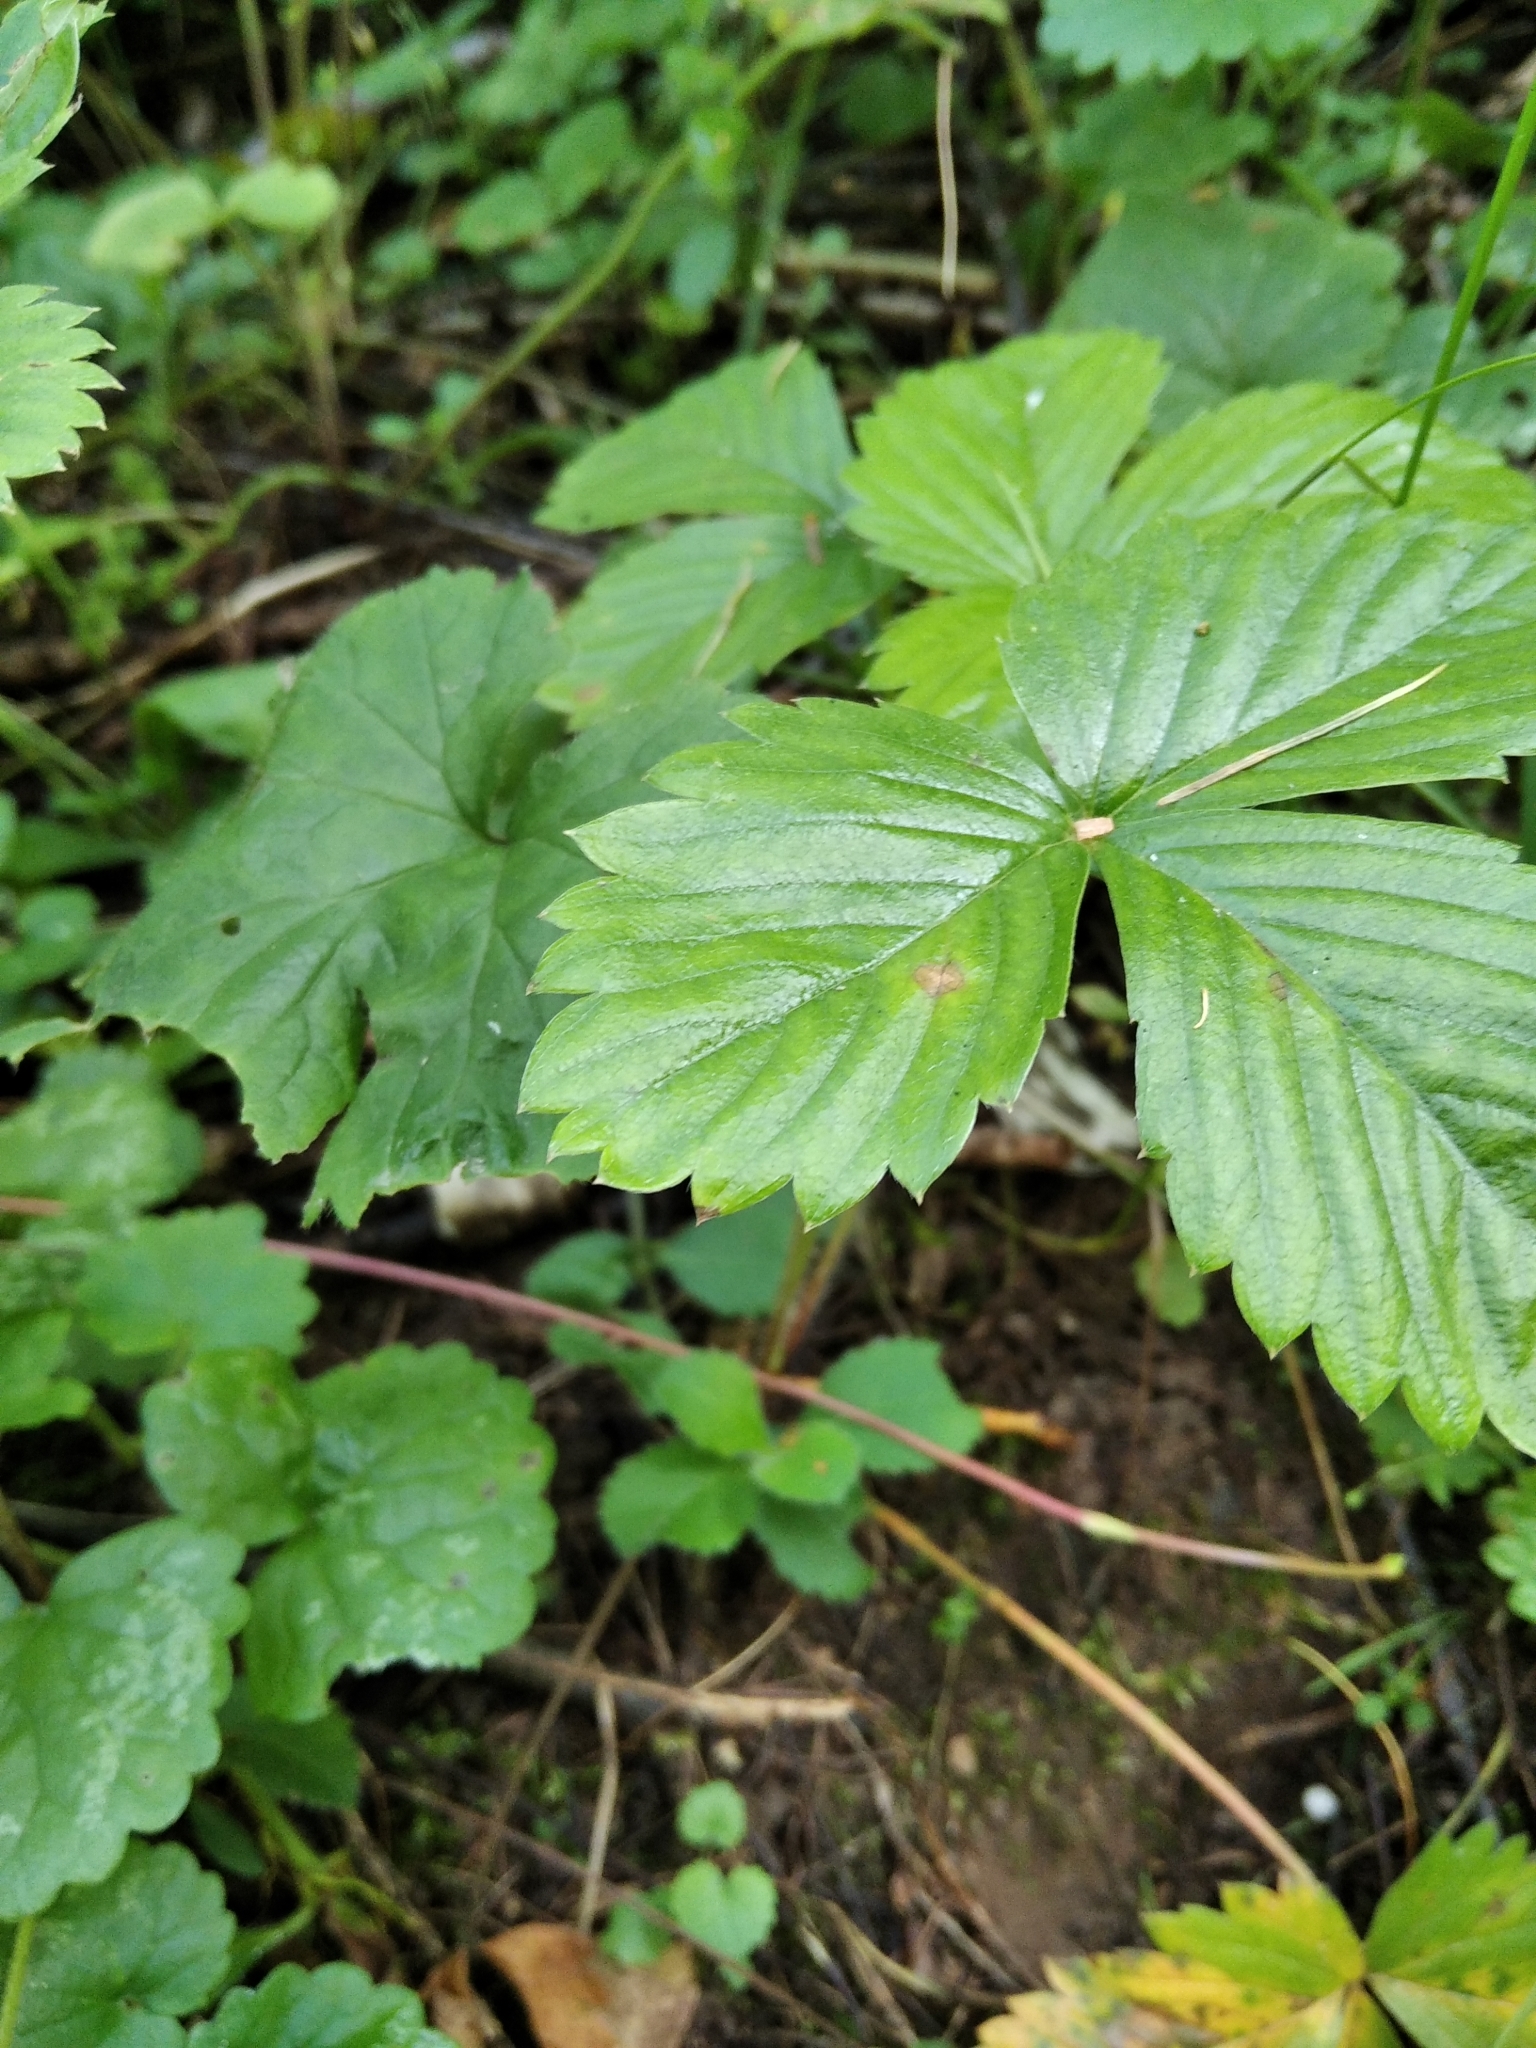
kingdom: Plantae
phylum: Tracheophyta
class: Magnoliopsida
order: Rosales
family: Rosaceae
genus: Fragaria
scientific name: Fragaria vesca
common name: Wild strawberry
